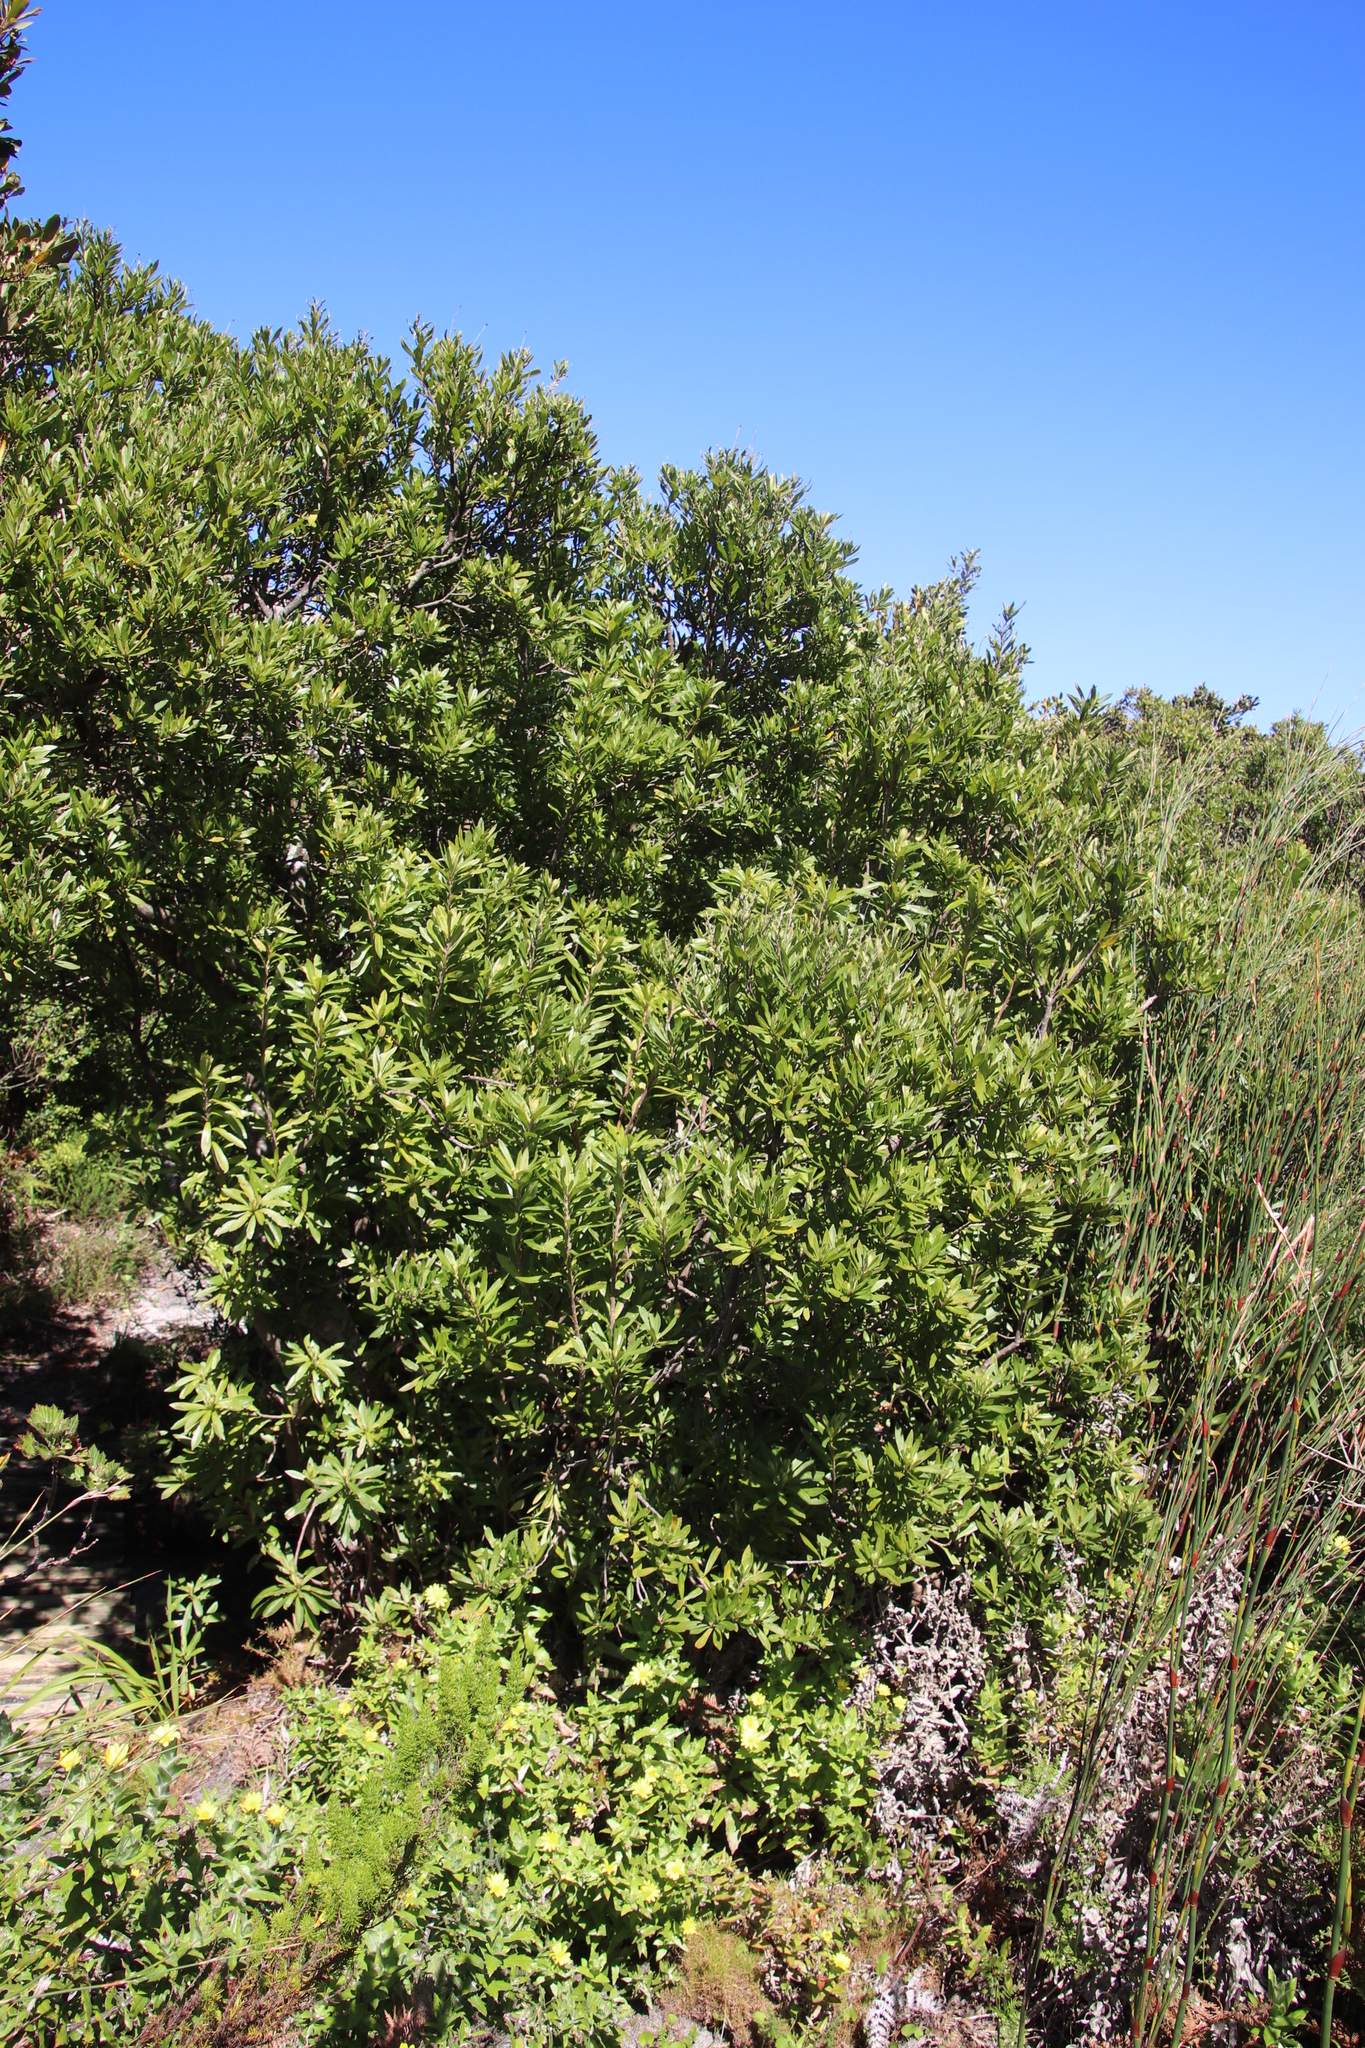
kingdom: Plantae
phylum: Tracheophyta
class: Magnoliopsida
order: Asterales
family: Asteraceae
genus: Brachylaena
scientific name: Brachylaena neriifolia
